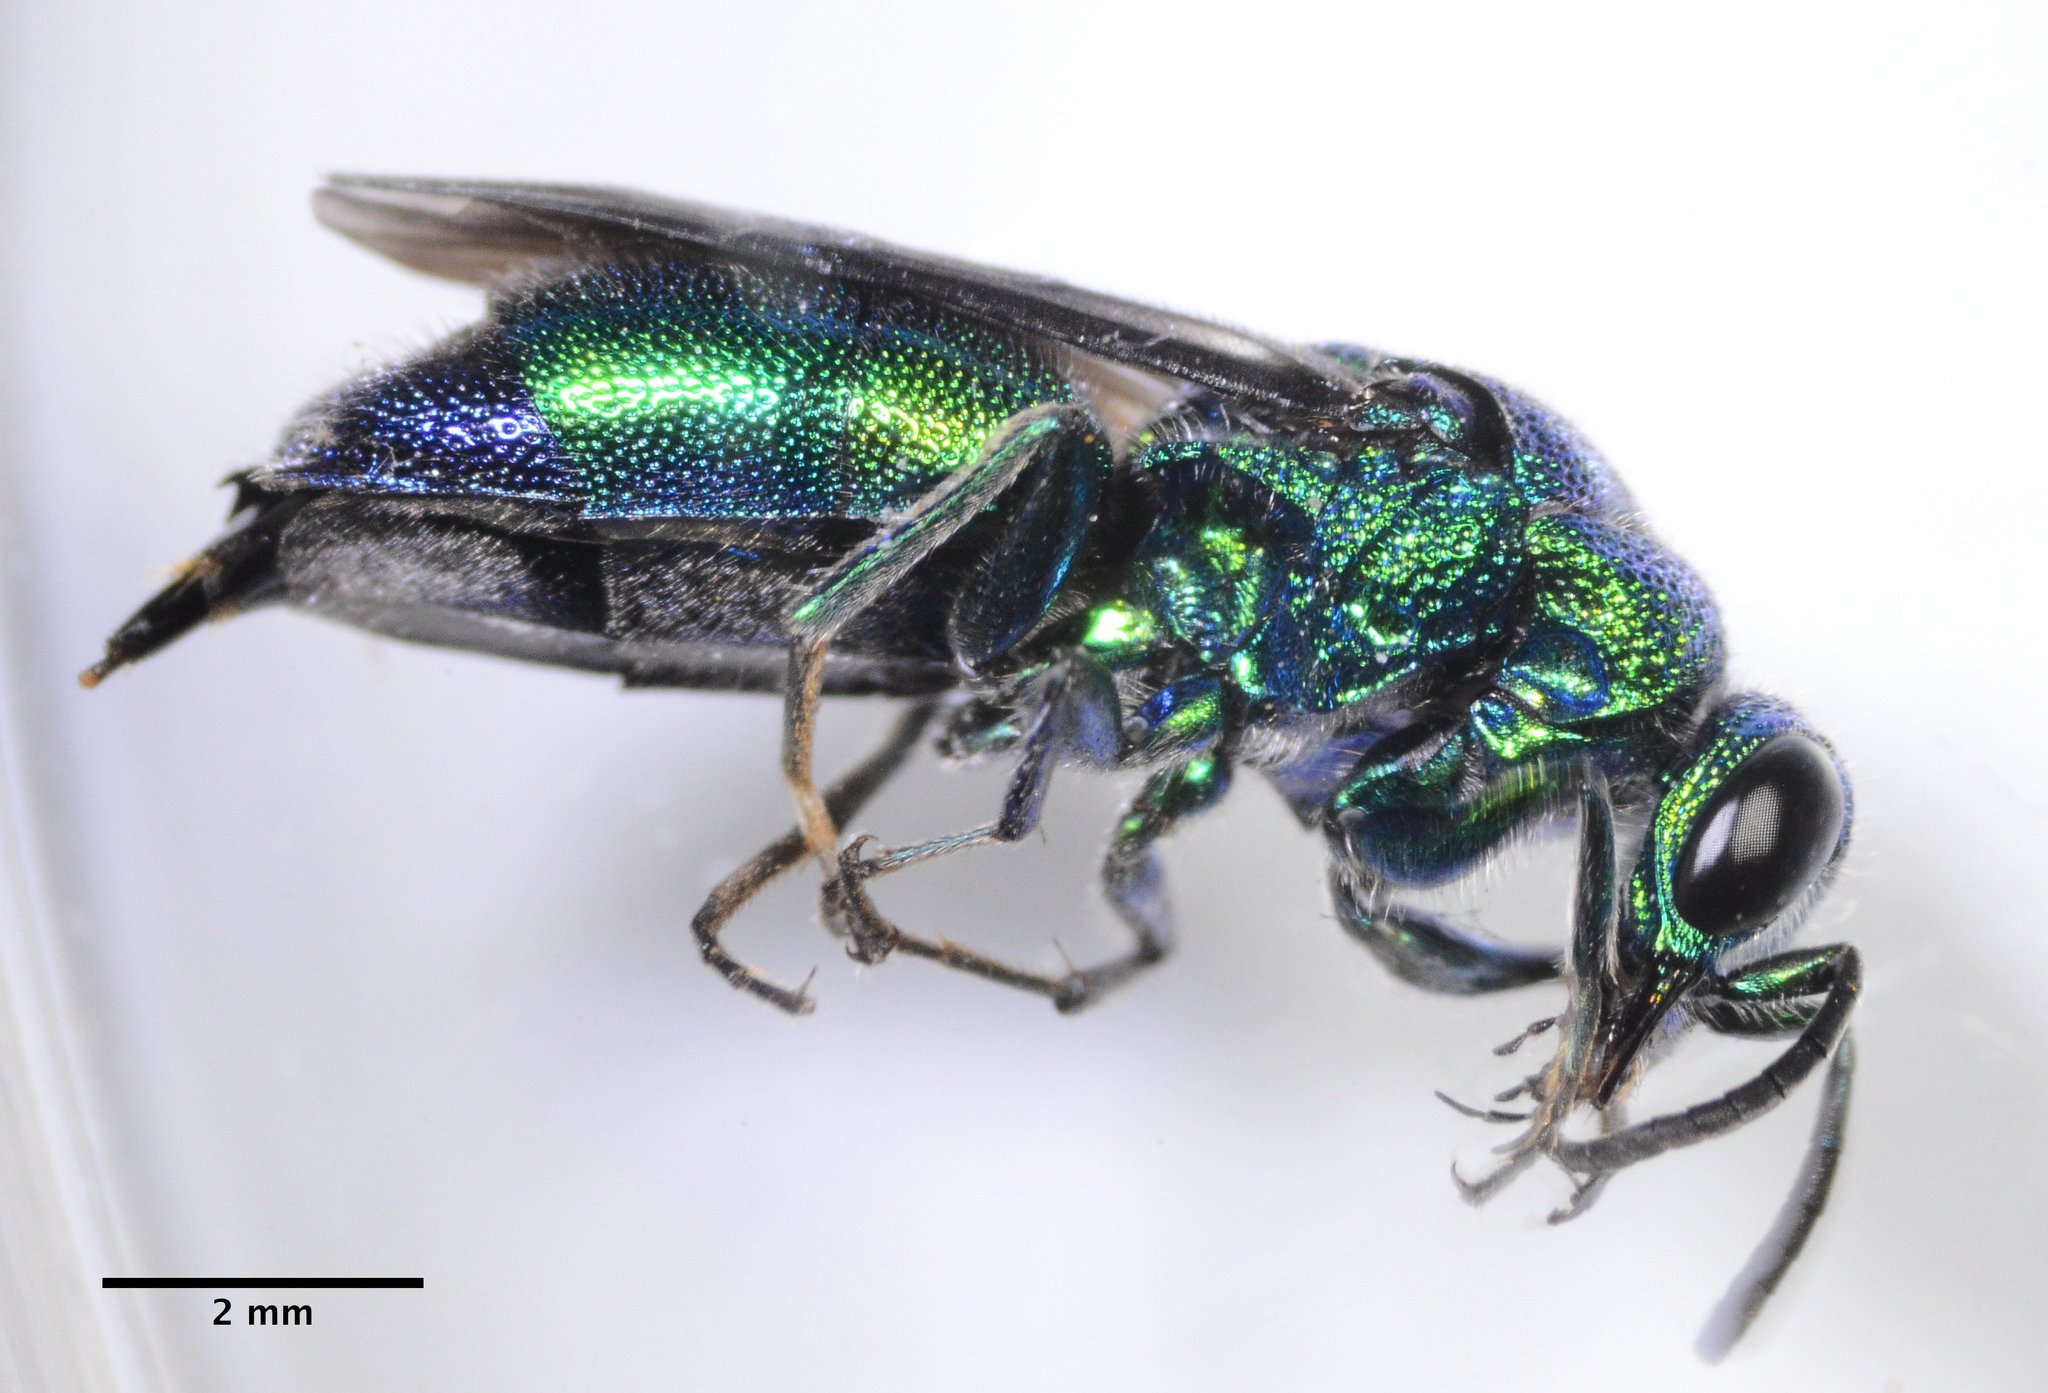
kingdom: Animalia
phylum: Arthropoda
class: Insecta
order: Hymenoptera
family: Chrysididae
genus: Chrysis
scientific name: Chrysis angolensis
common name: Cuckoo wasp
